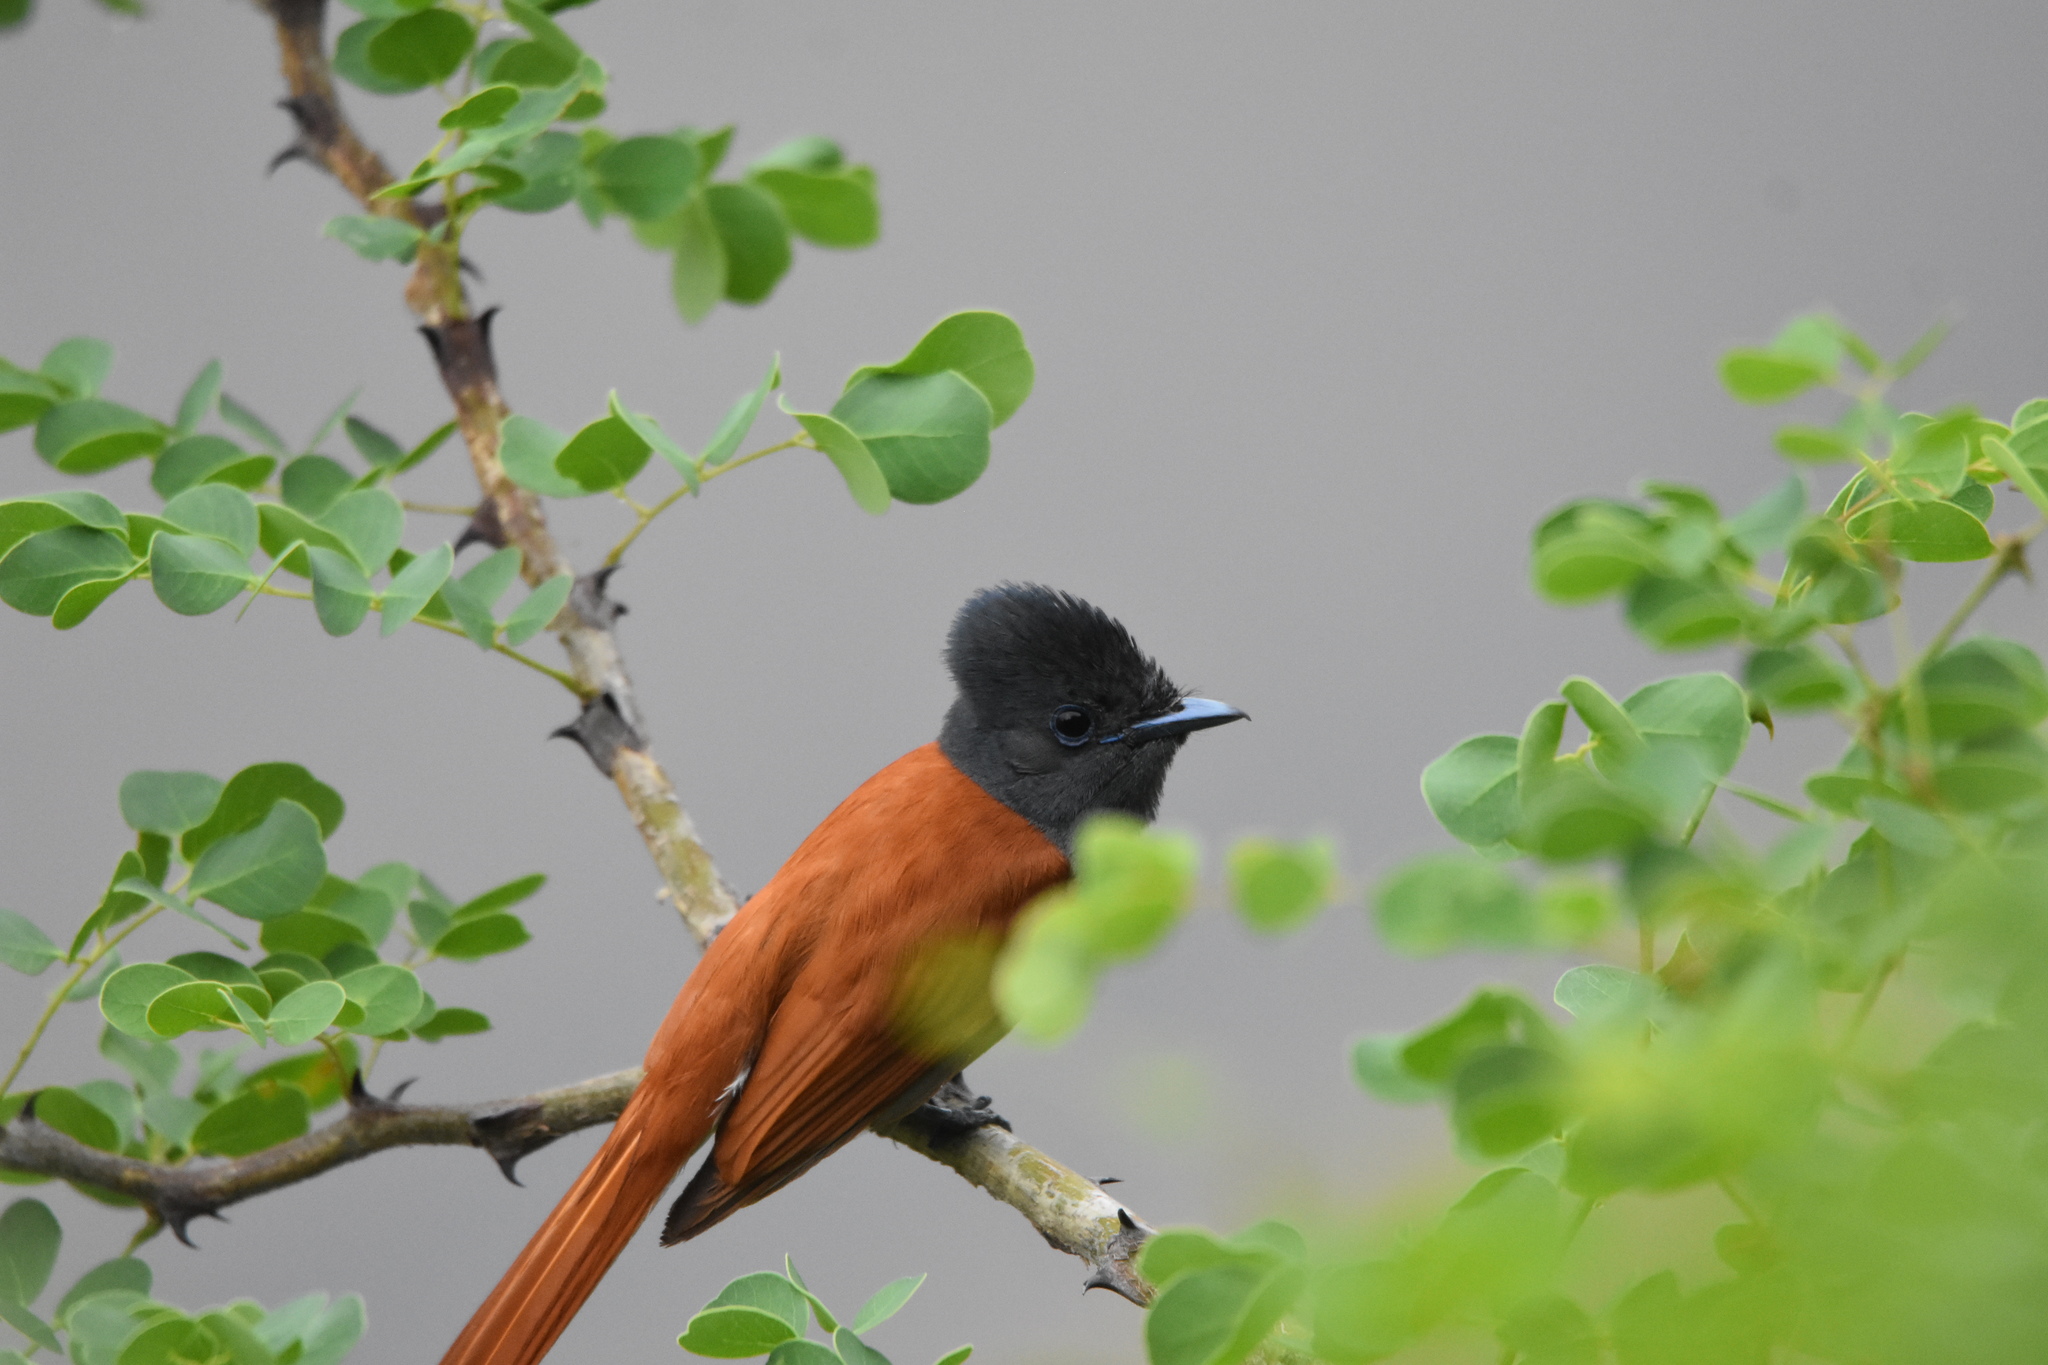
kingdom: Animalia
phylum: Chordata
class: Aves
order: Passeriformes
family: Monarchidae
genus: Terpsiphone
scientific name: Terpsiphone viridis
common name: African paradise flycatcher
